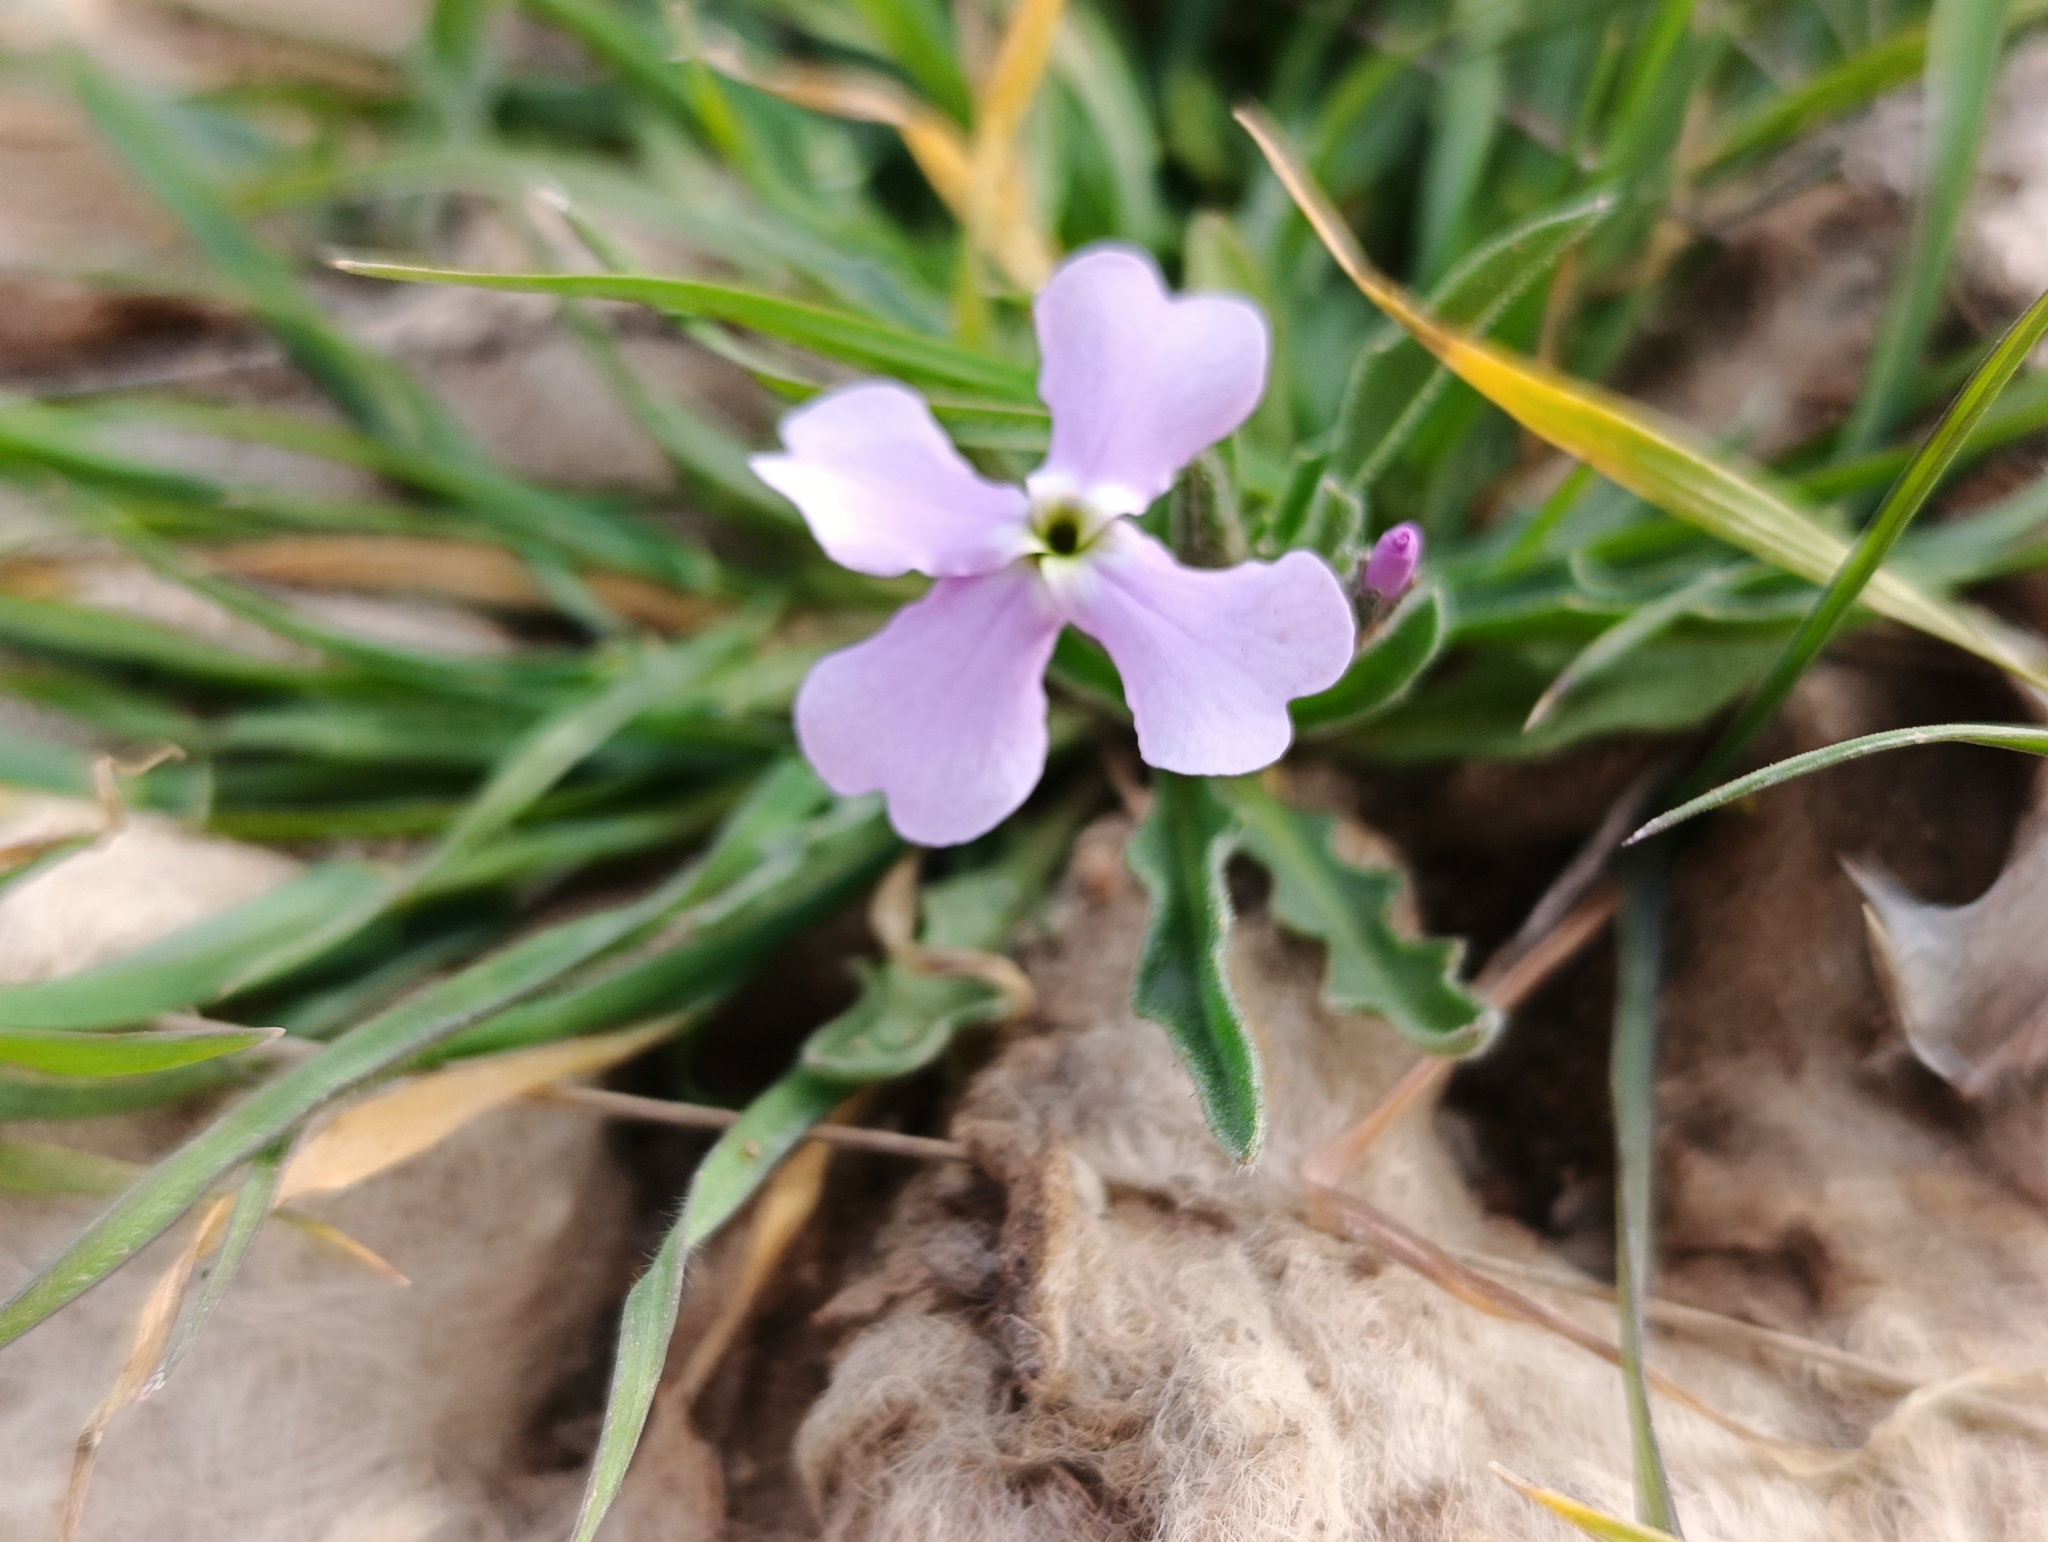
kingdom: Plantae
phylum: Tracheophyta
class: Magnoliopsida
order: Brassicales
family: Brassicaceae
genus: Matthiola
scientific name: Matthiola lunata
